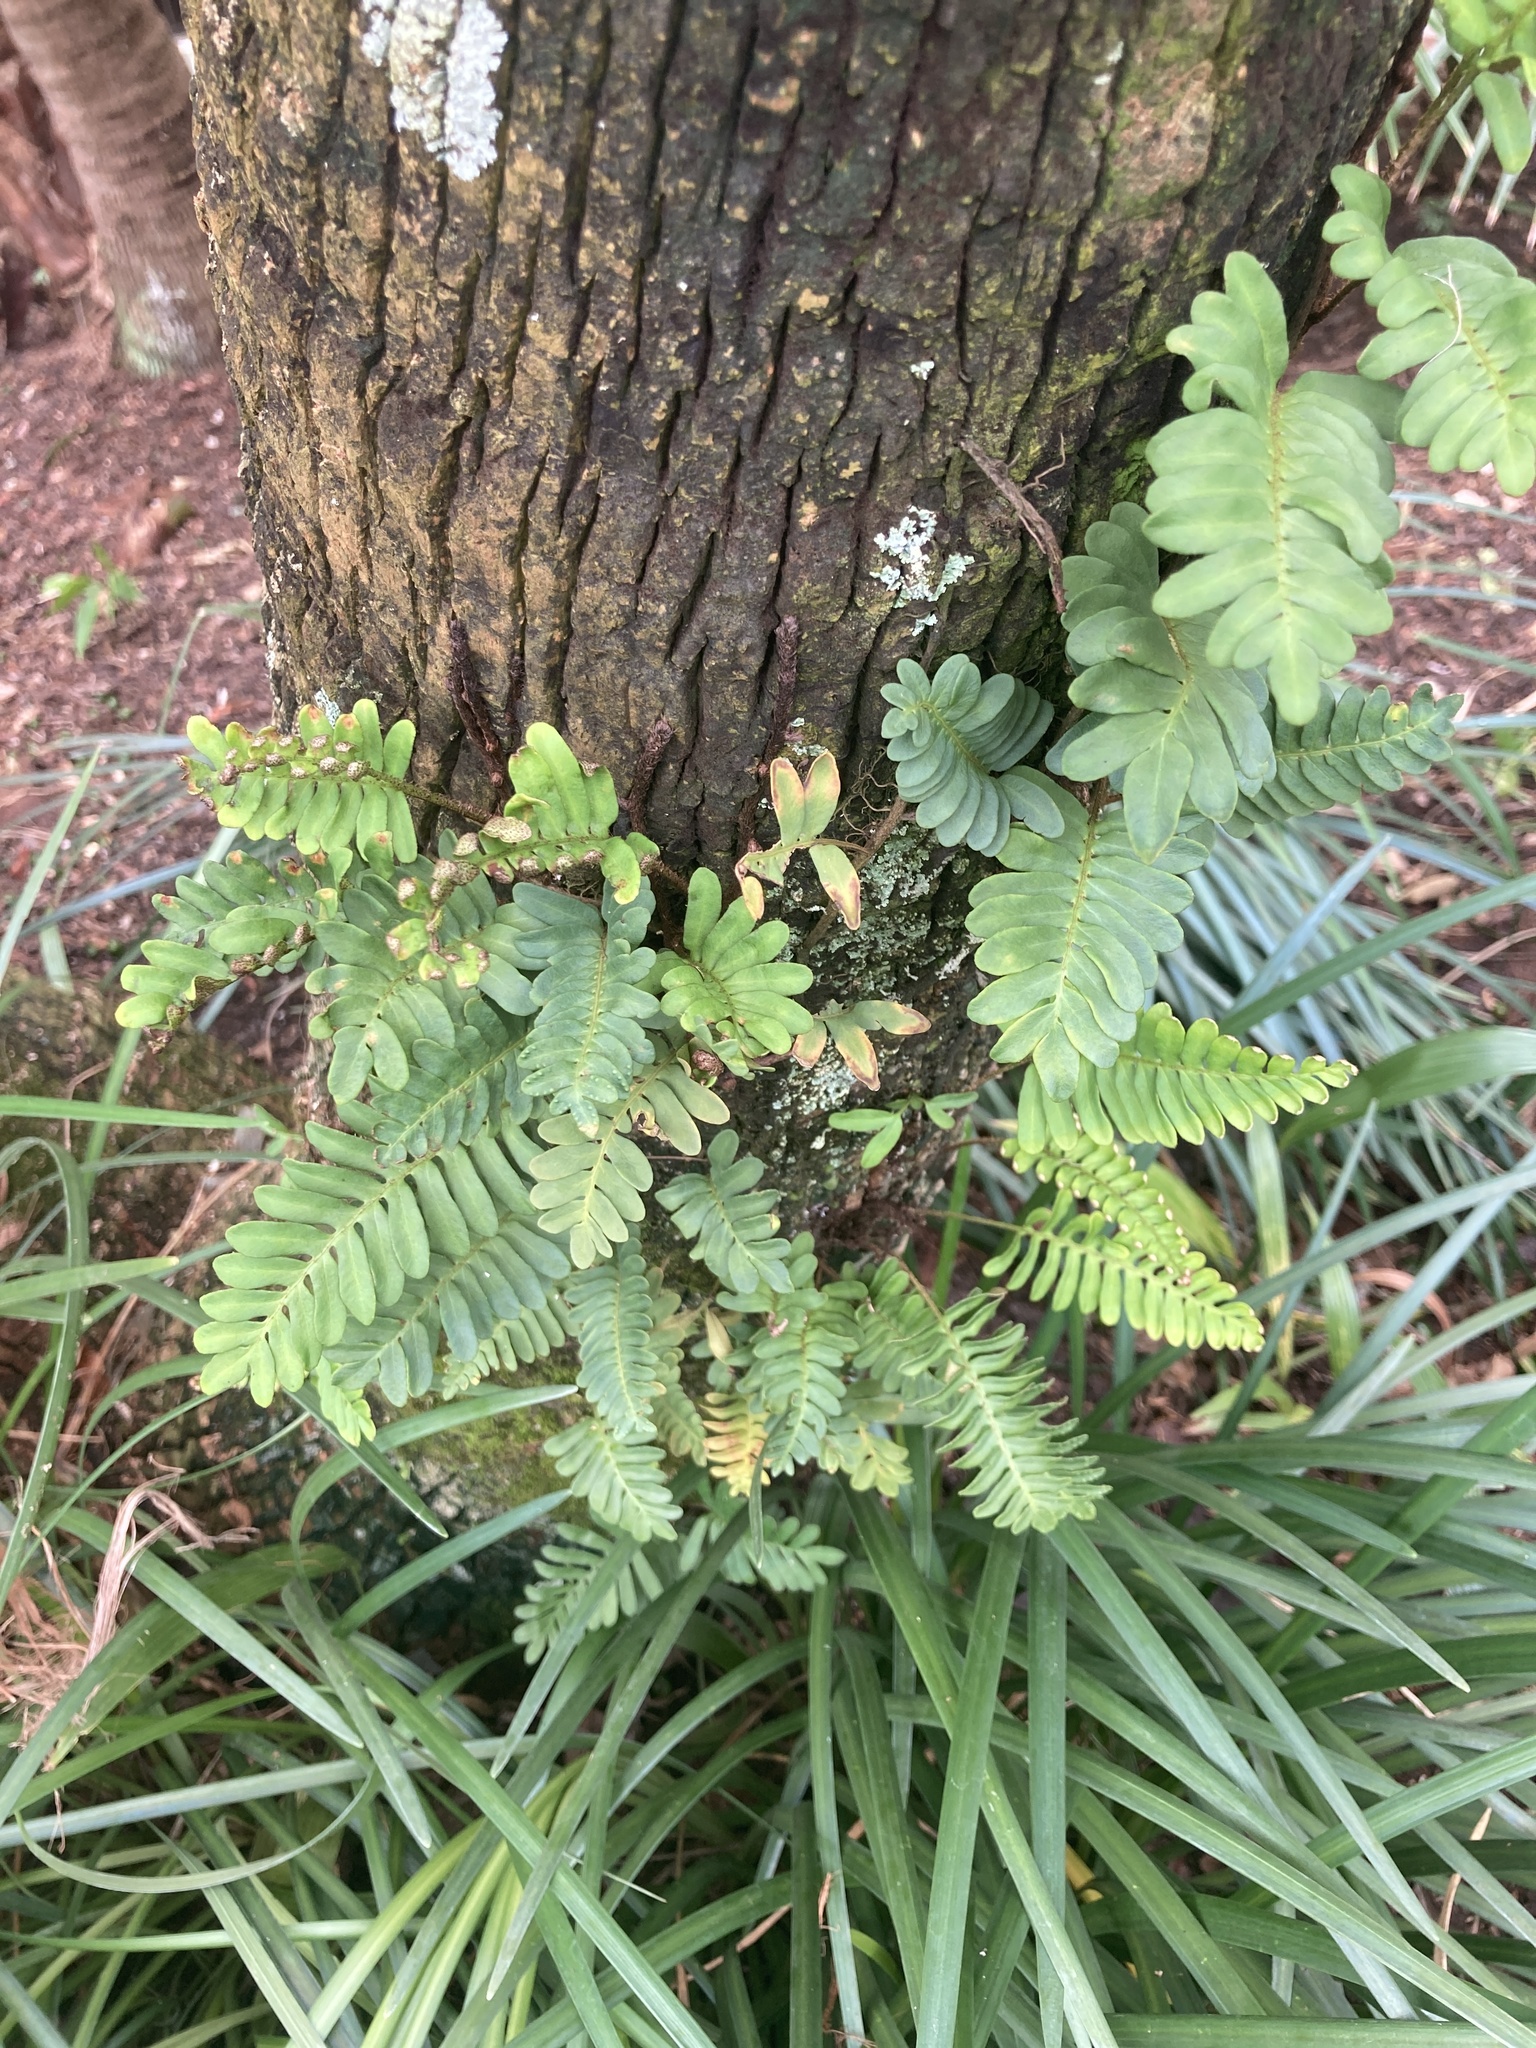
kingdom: Plantae
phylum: Tracheophyta
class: Polypodiopsida
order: Polypodiales
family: Polypodiaceae
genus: Pleopeltis
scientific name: Pleopeltis michauxiana
